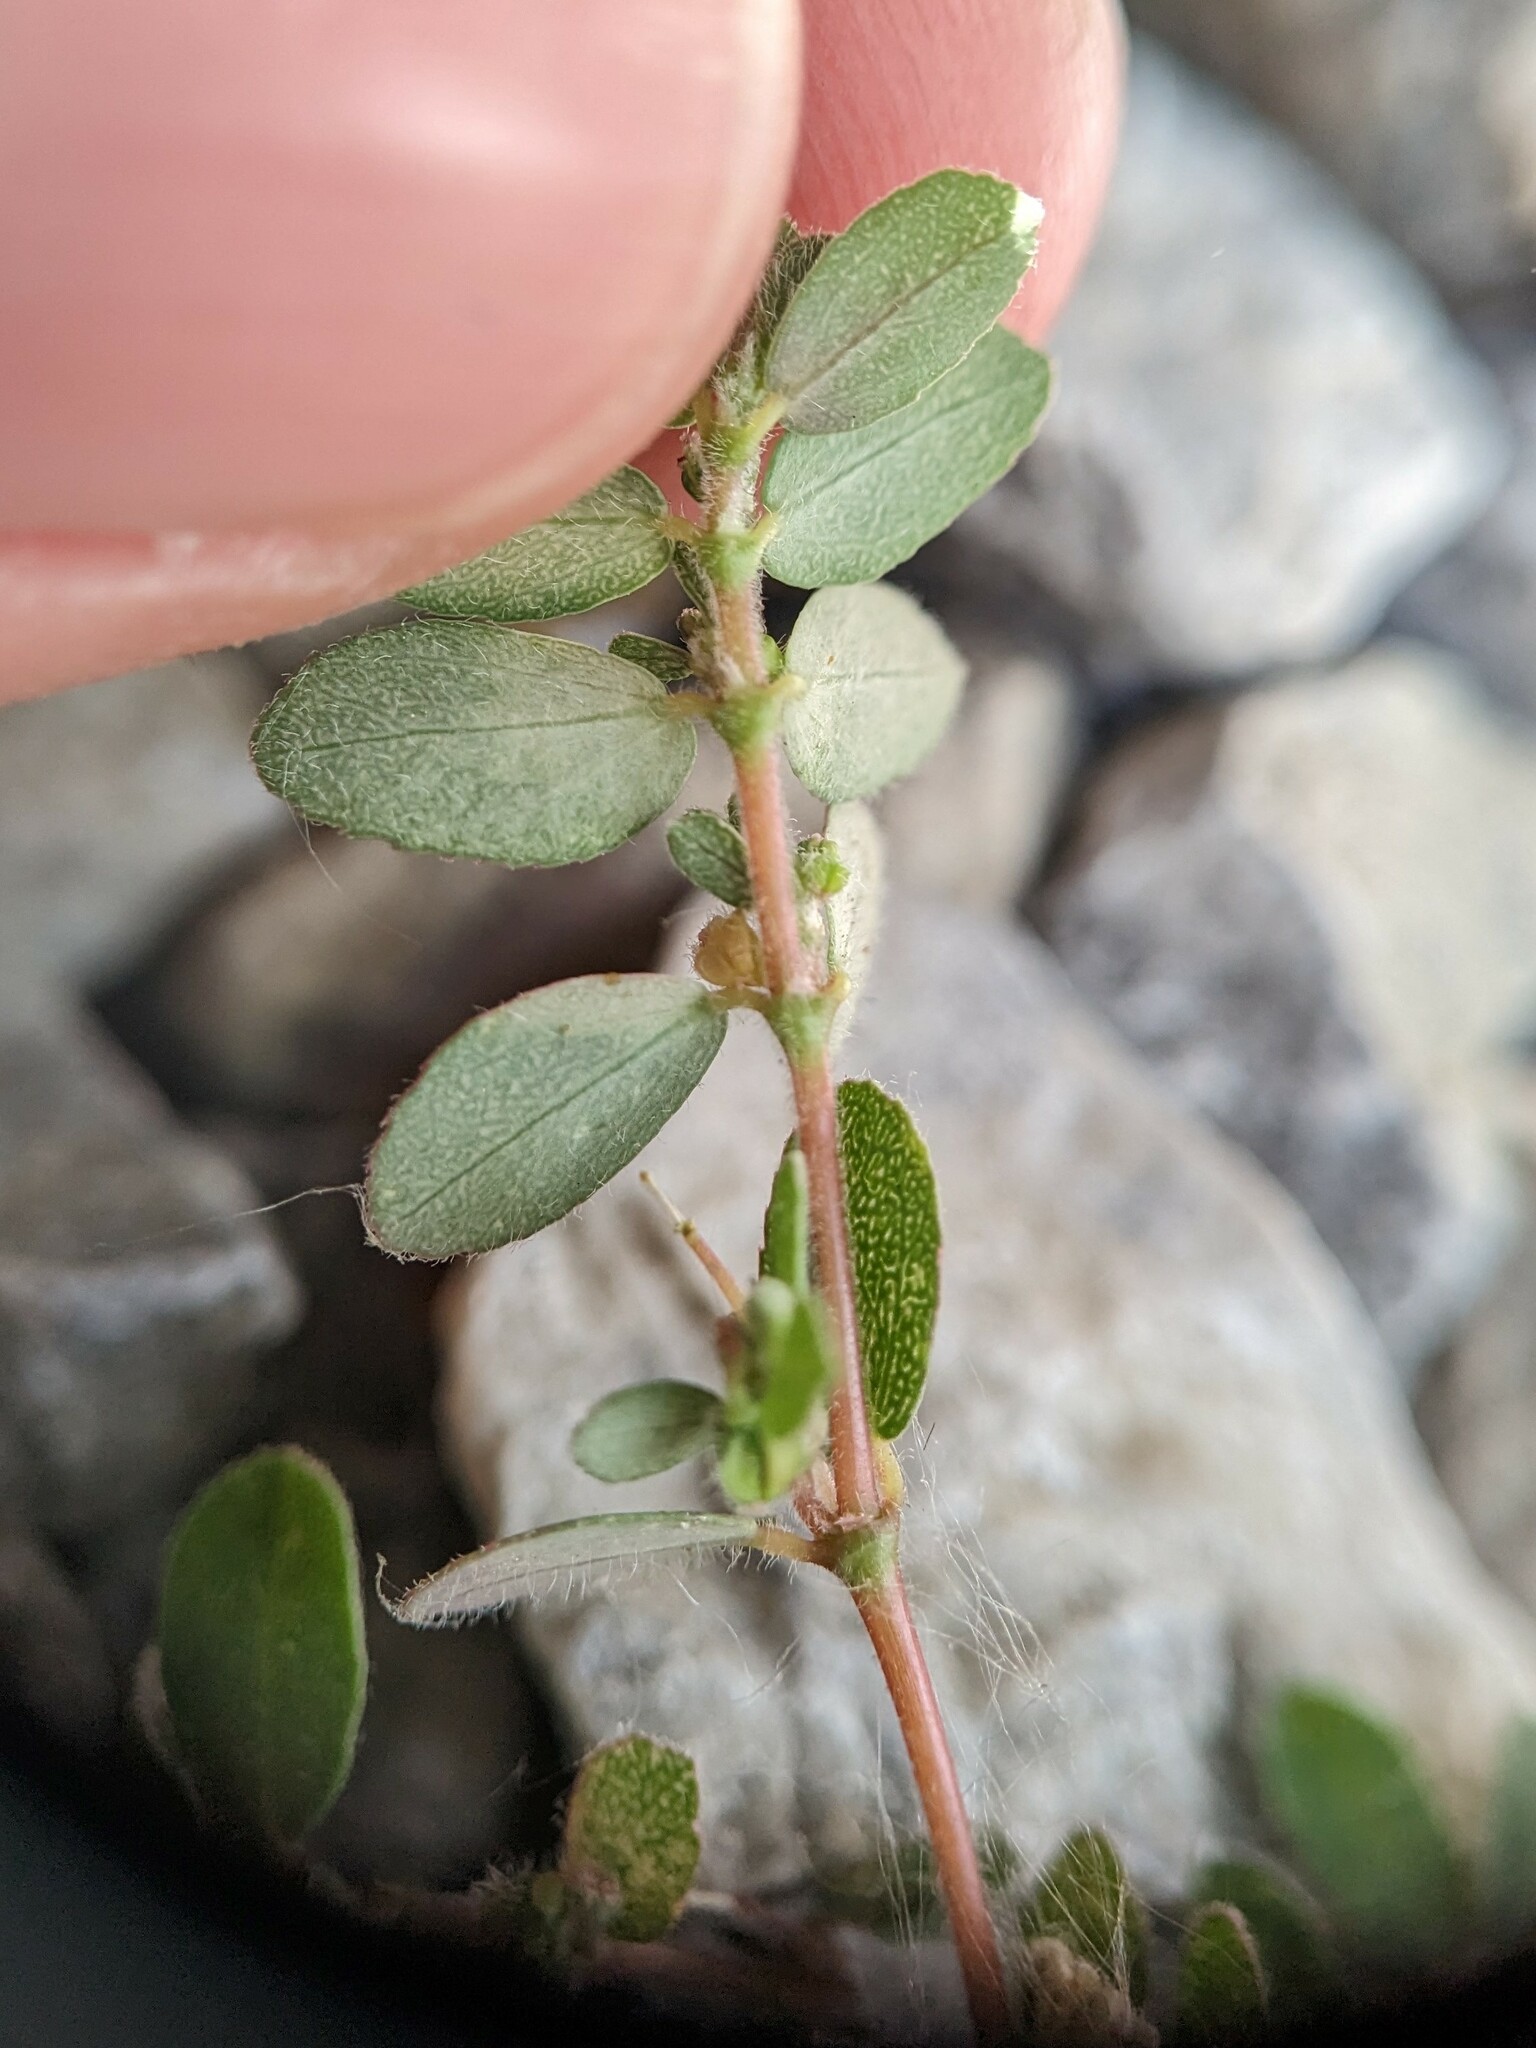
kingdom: Plantae
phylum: Tracheophyta
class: Magnoliopsida
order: Malpighiales
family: Euphorbiaceae
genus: Euphorbia
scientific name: Euphorbia prostrata
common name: Prostrate sandmat
